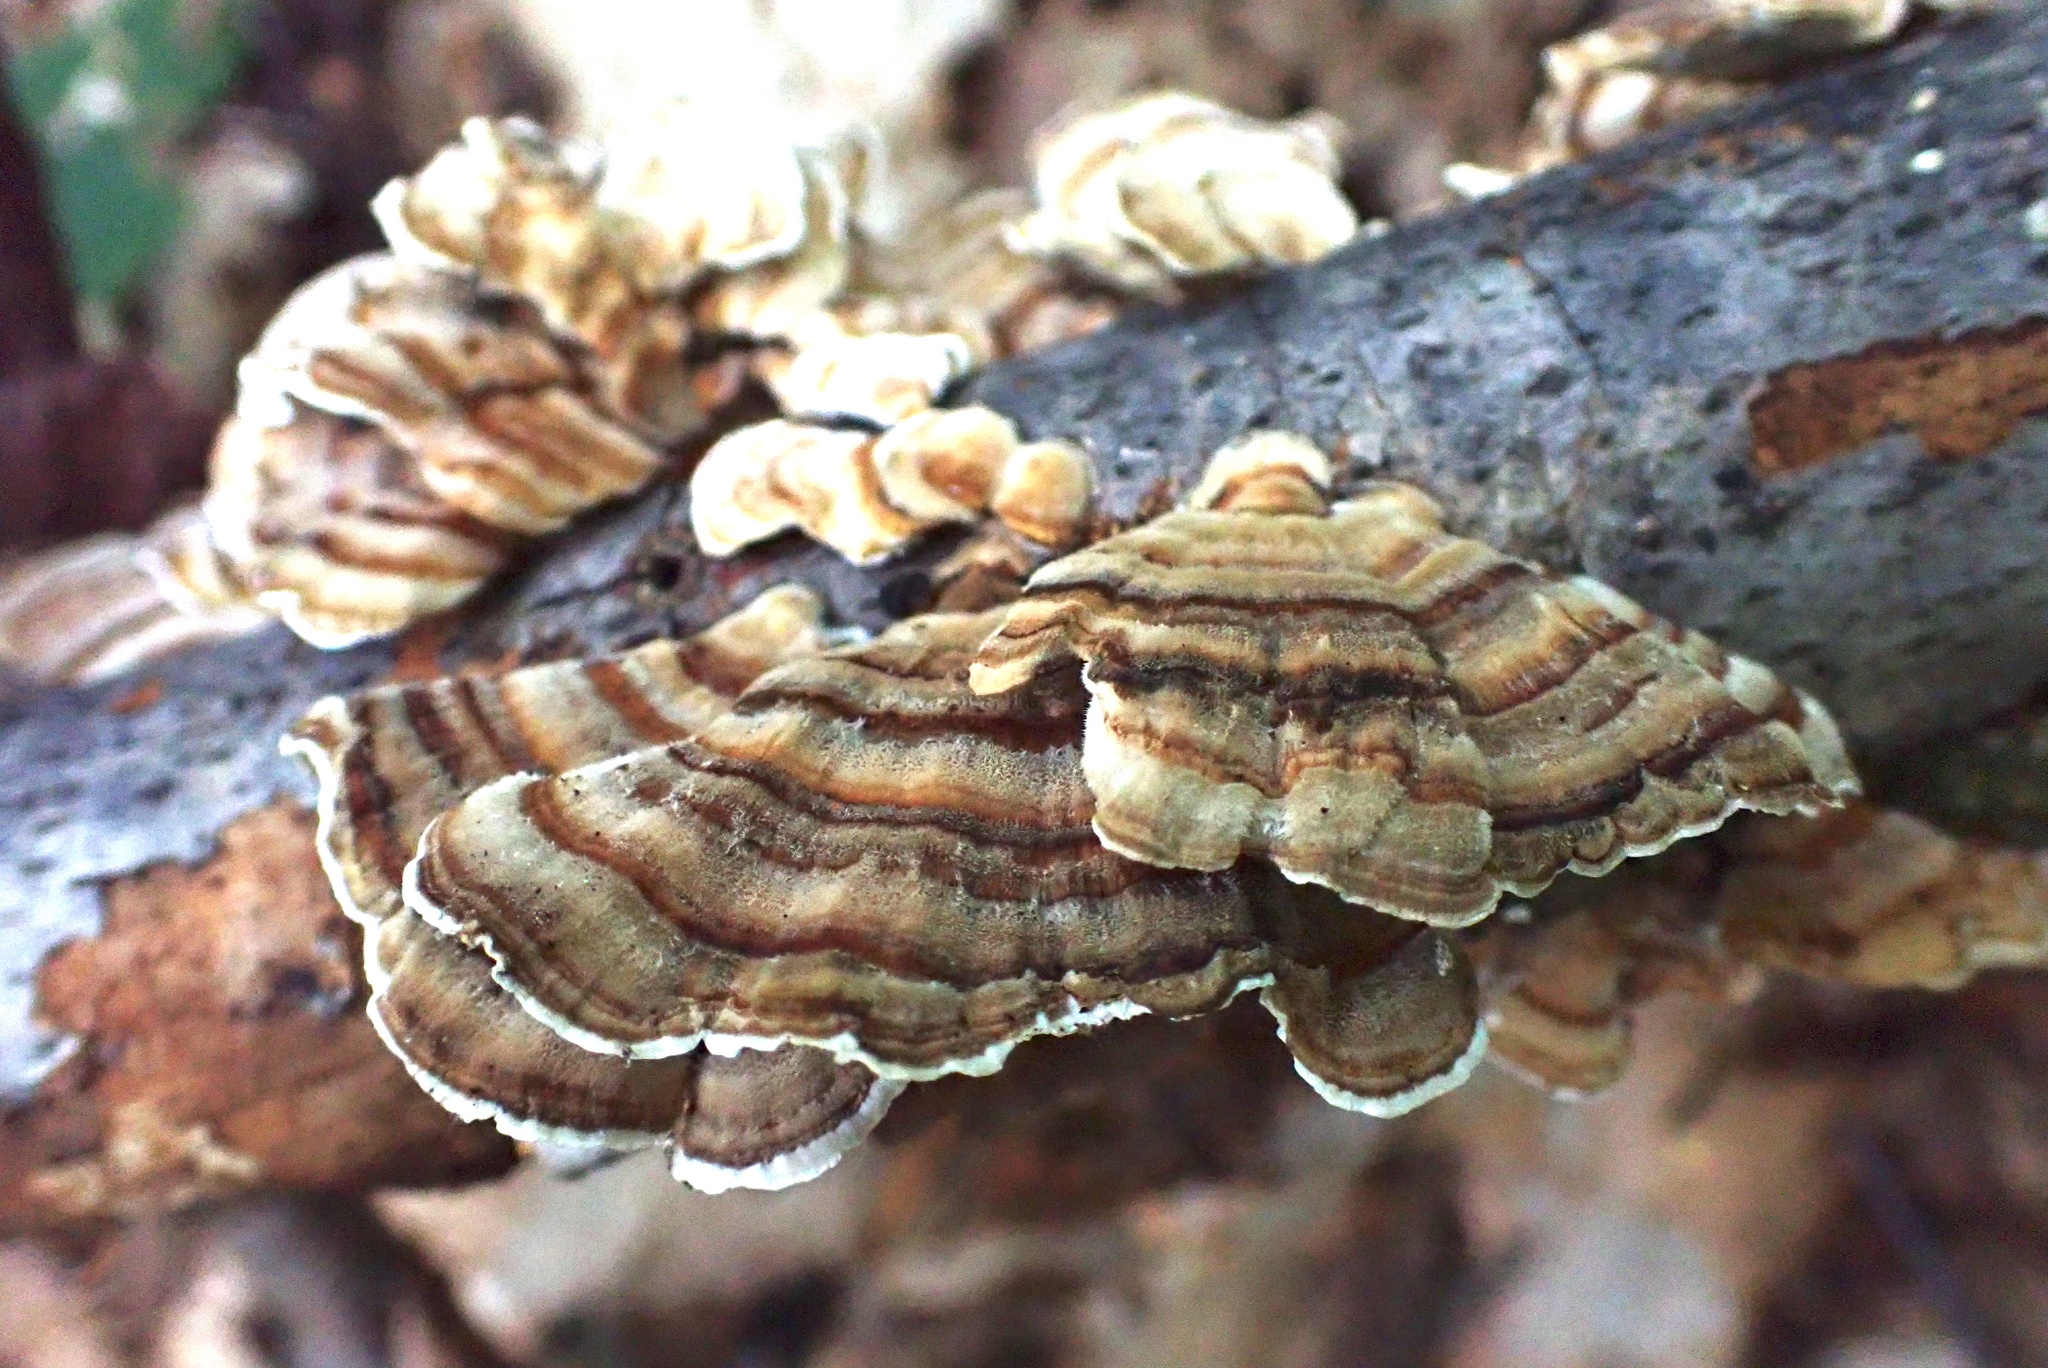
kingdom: Fungi
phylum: Basidiomycota
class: Agaricomycetes
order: Polyporales
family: Polyporaceae
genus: Trametes
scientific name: Trametes versicolor
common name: Turkeytail
